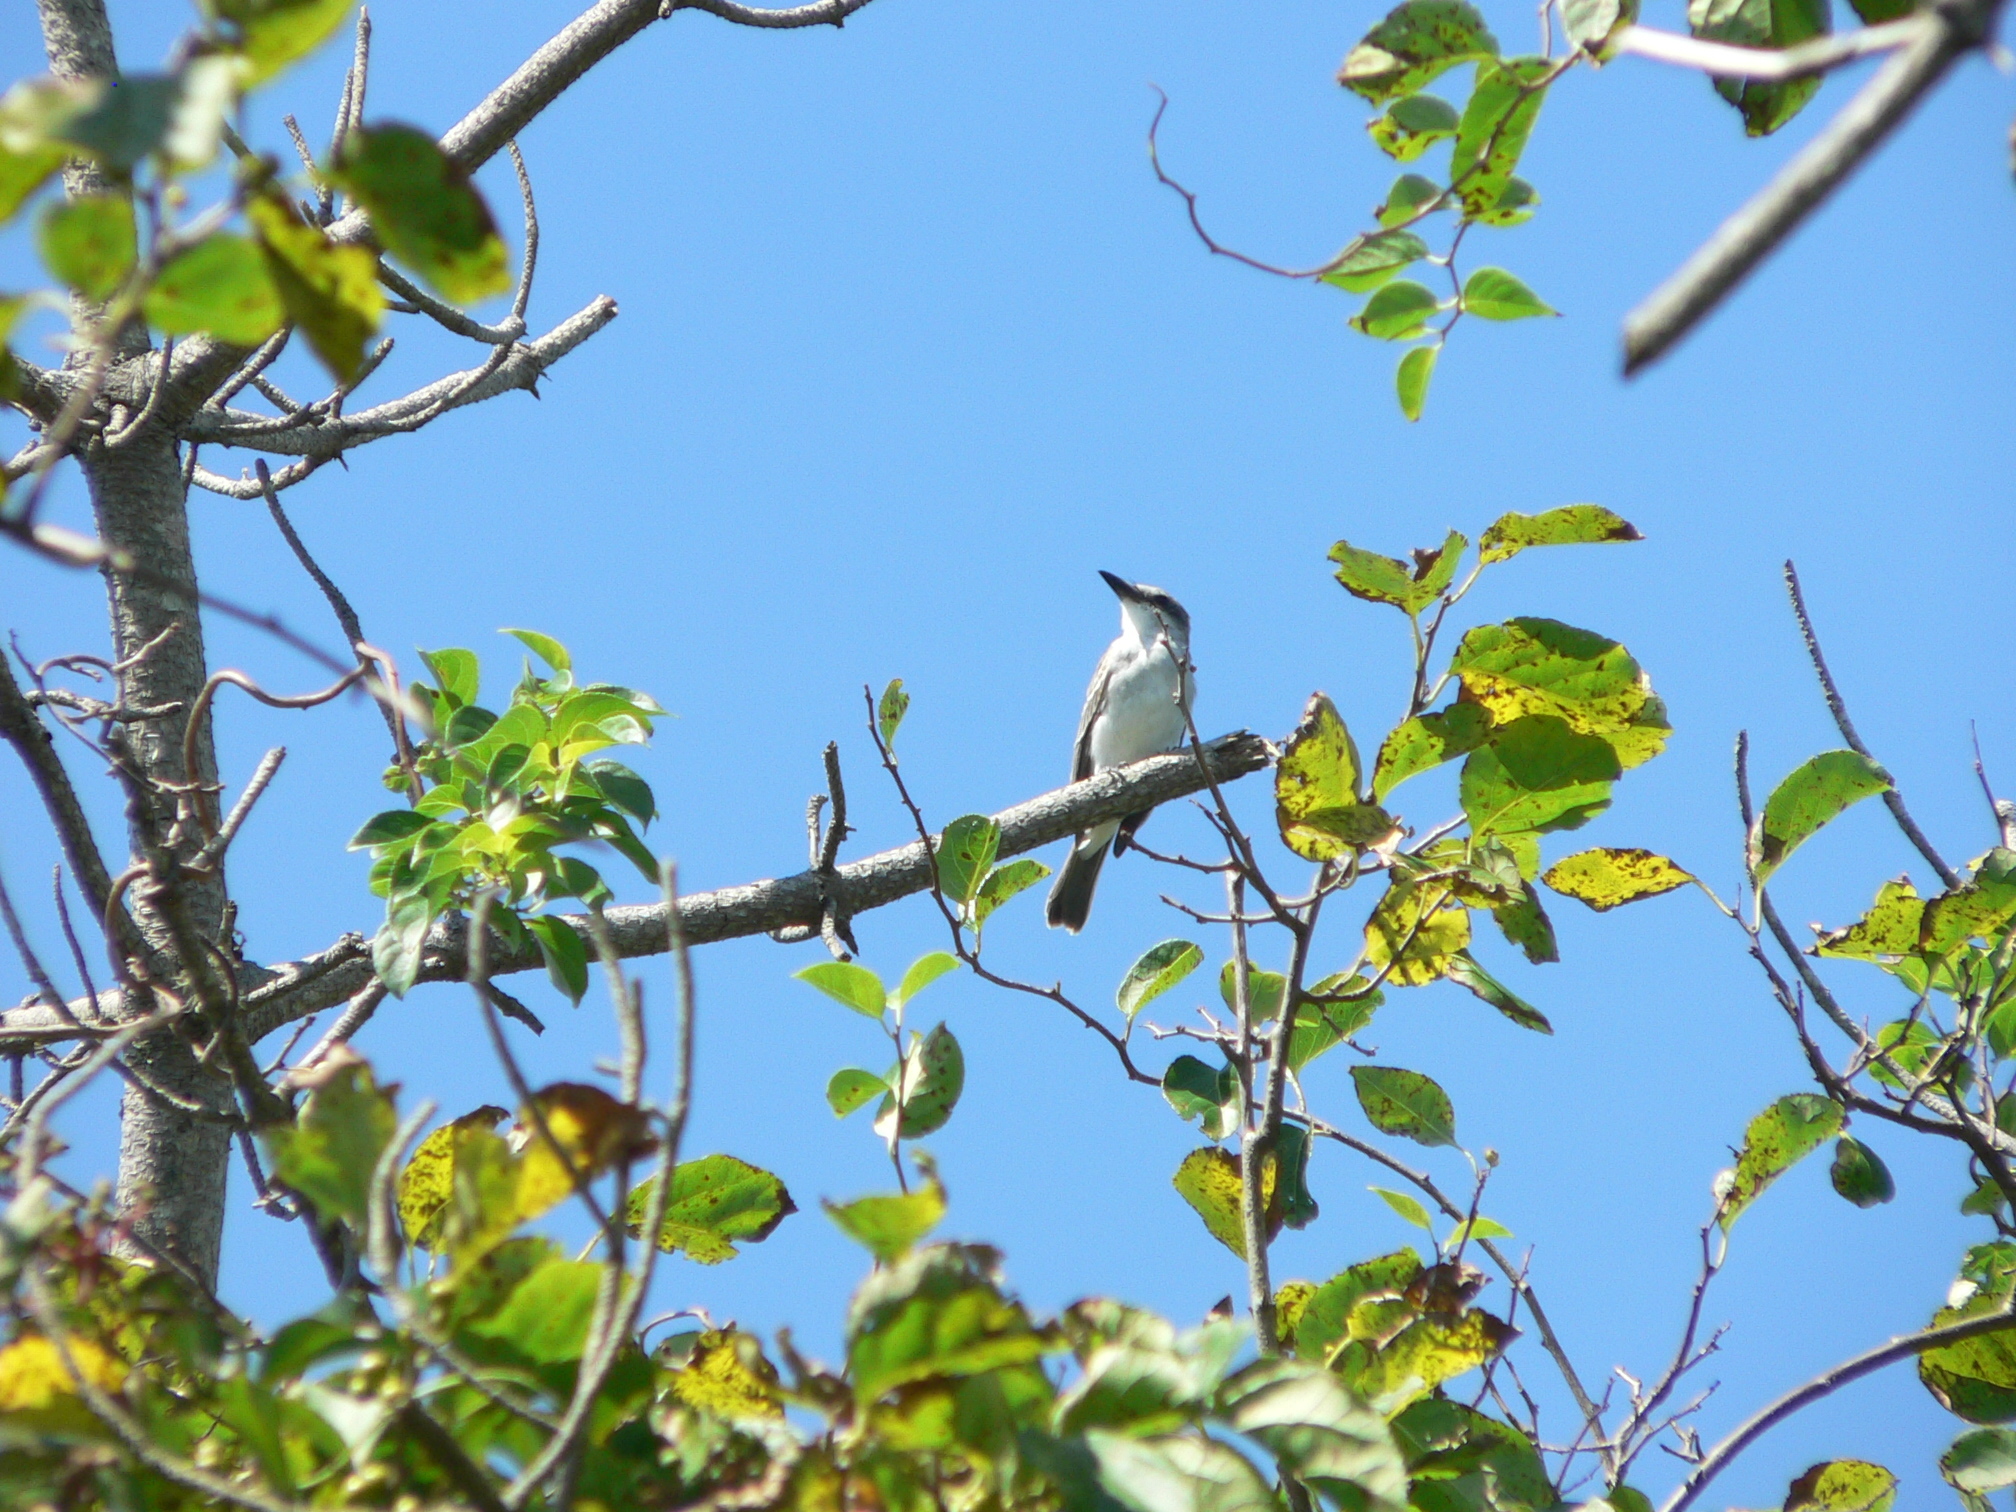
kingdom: Animalia
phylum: Chordata
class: Aves
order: Passeriformes
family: Tyrannidae
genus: Tyrannus
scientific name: Tyrannus dominicensis
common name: Gray kingbird
